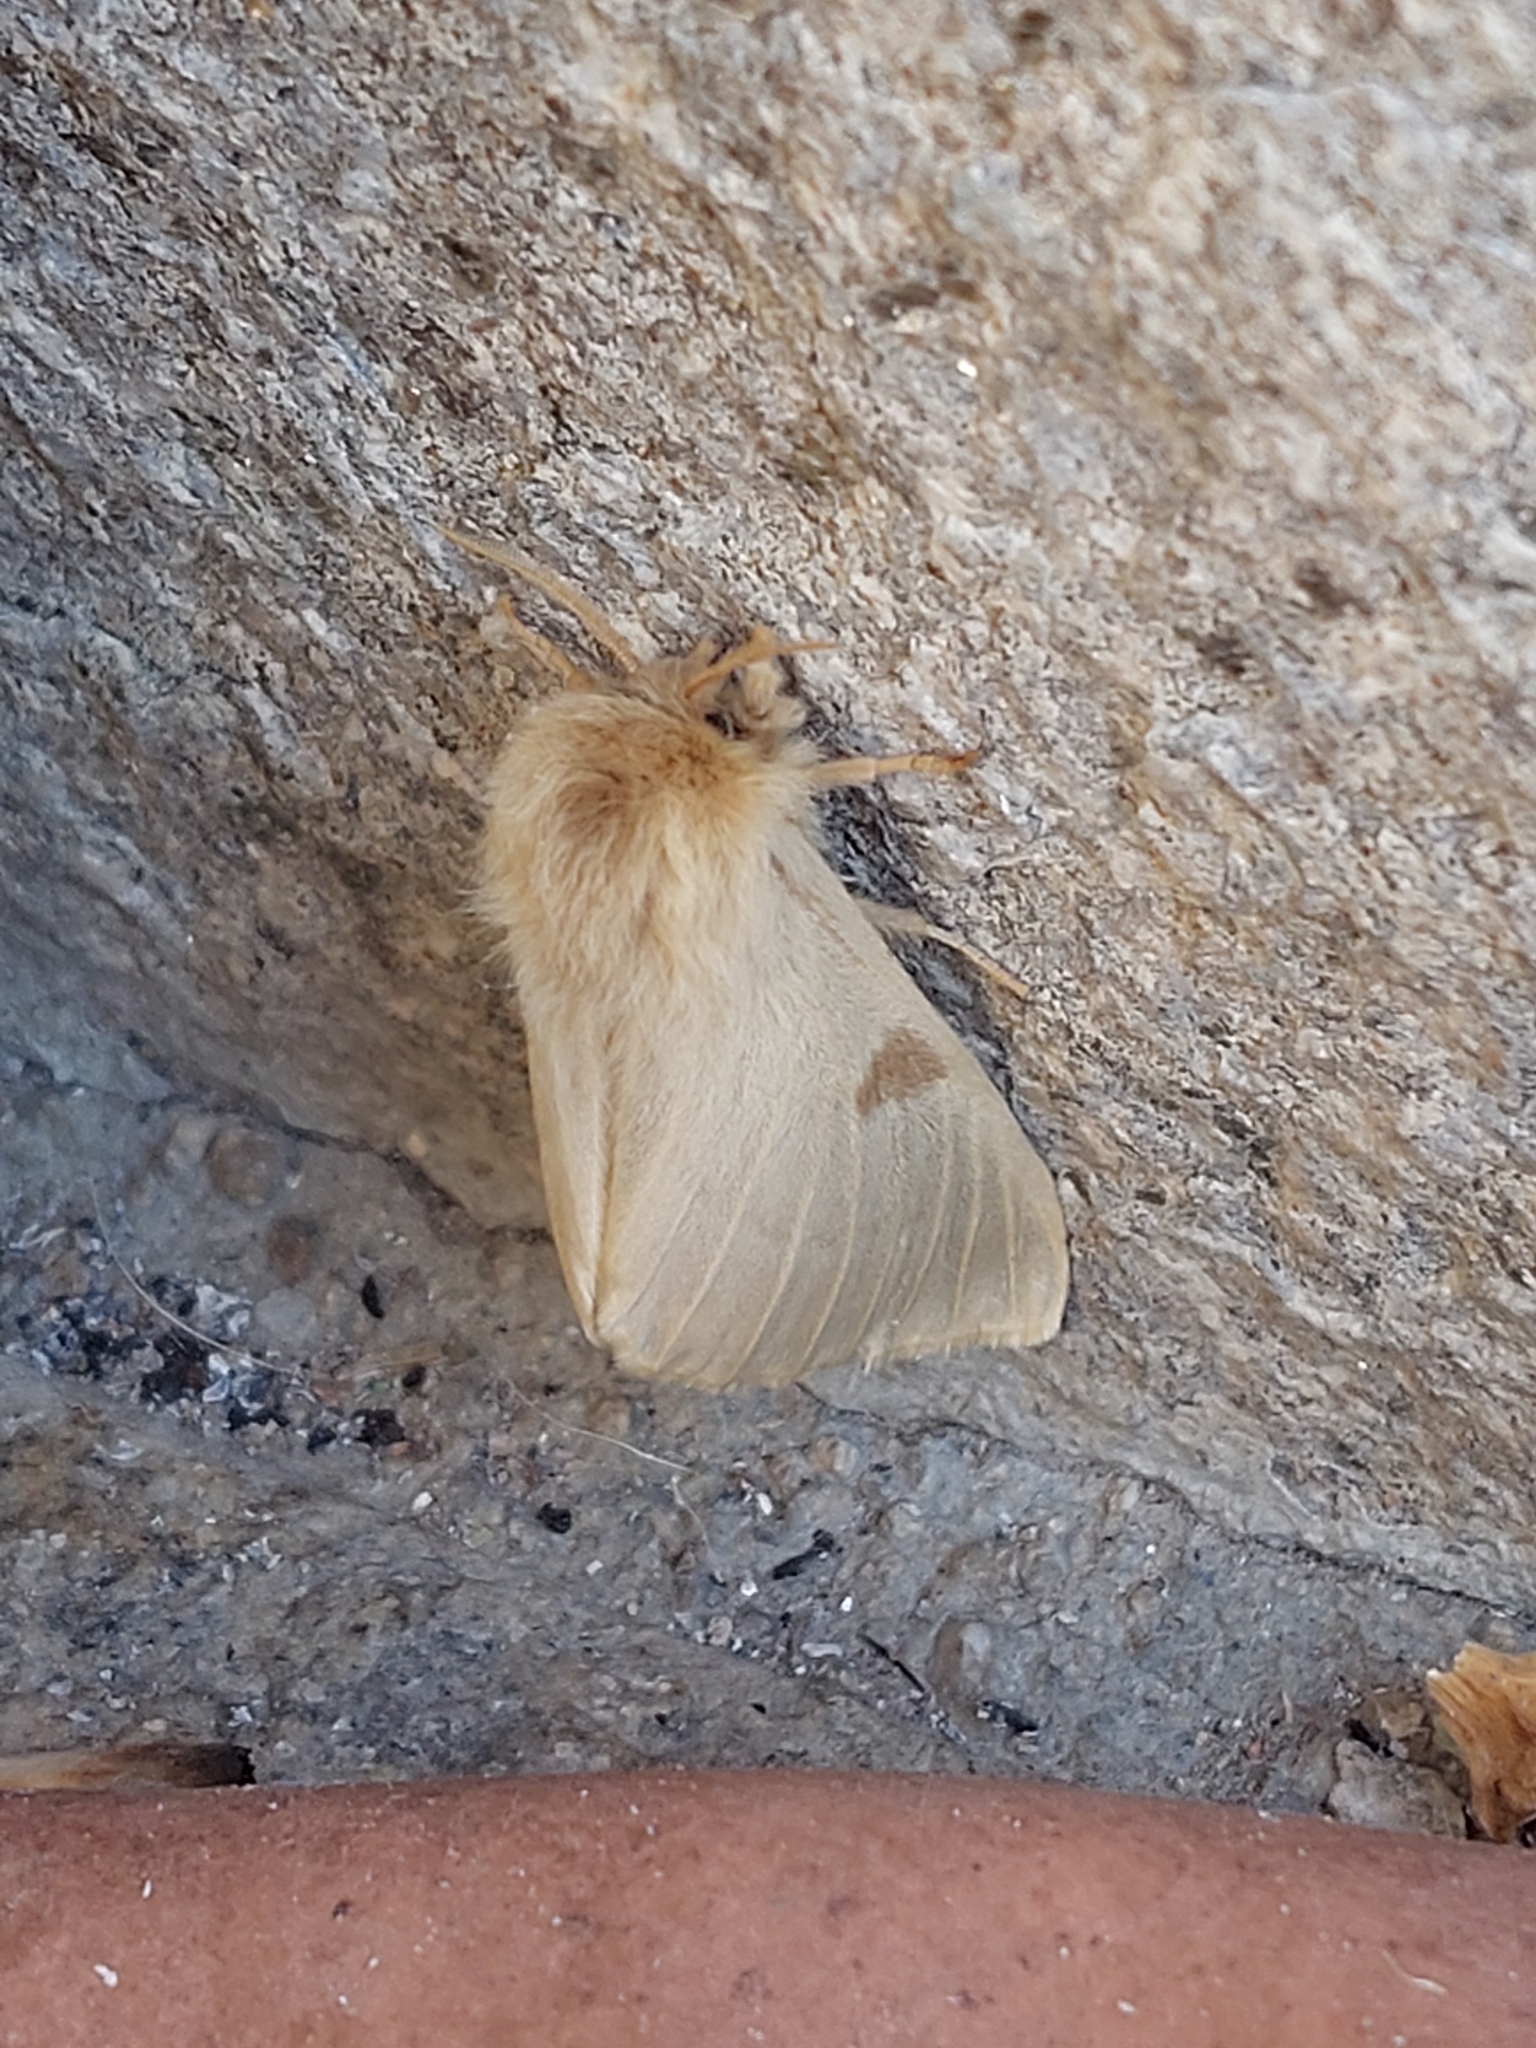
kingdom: Animalia
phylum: Arthropoda
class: Insecta
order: Lepidoptera
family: Brahmaeidae
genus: Lemonia
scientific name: Lemonia balcanica
